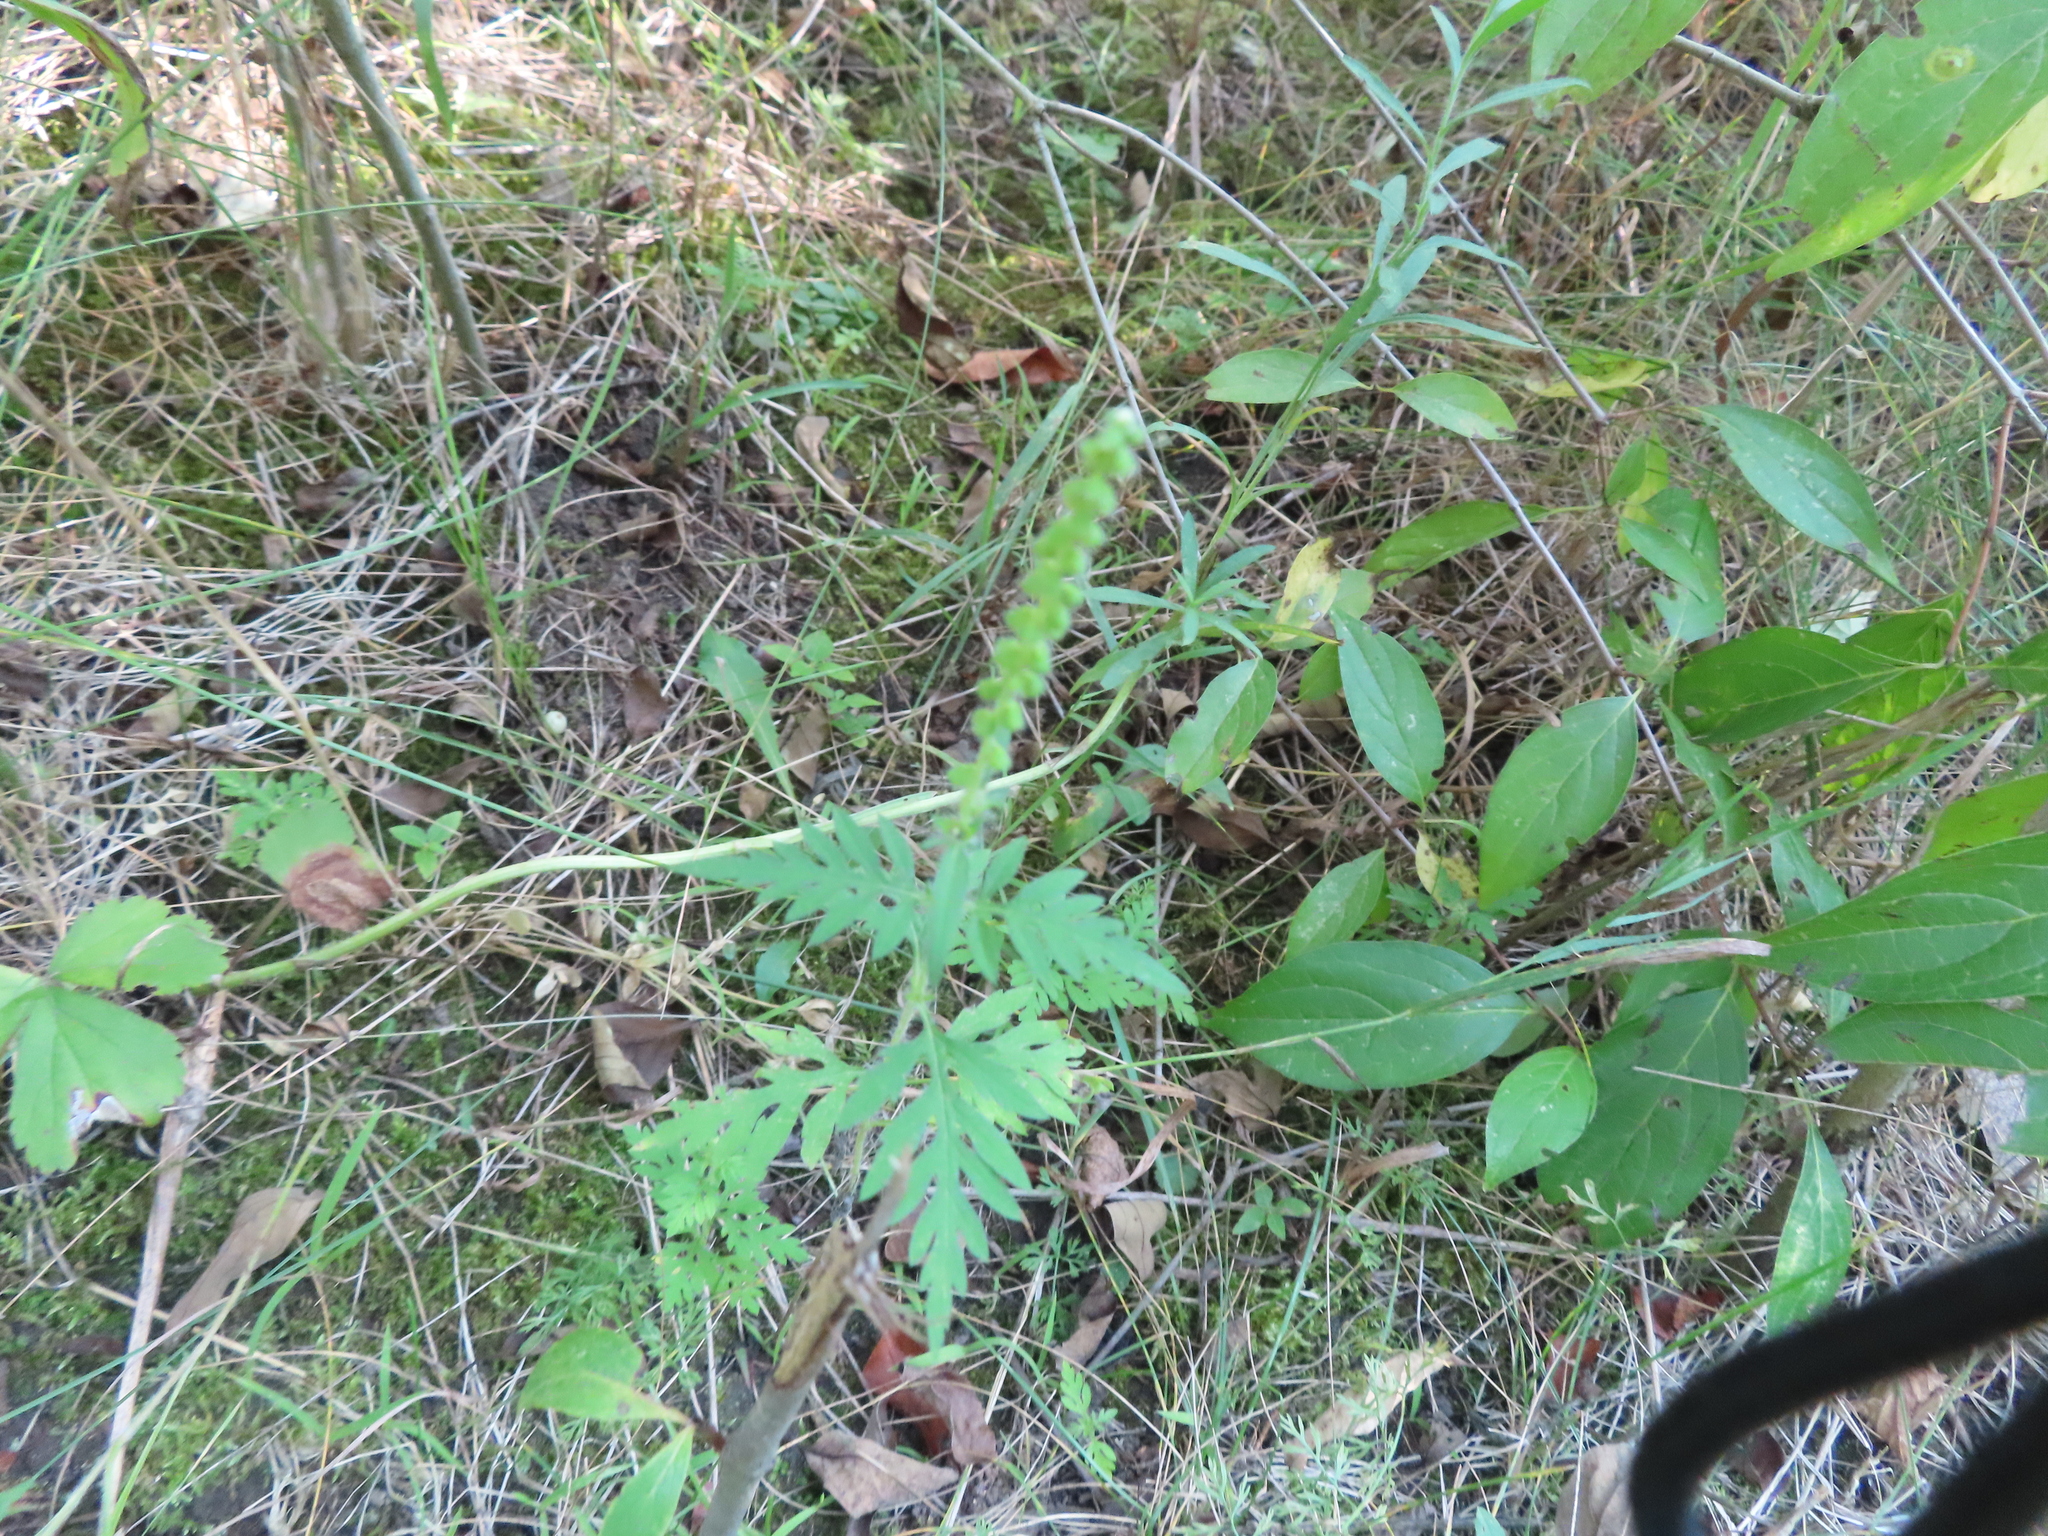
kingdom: Plantae
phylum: Tracheophyta
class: Magnoliopsida
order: Asterales
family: Asteraceae
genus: Ambrosia
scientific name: Ambrosia artemisiifolia
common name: Annual ragweed
